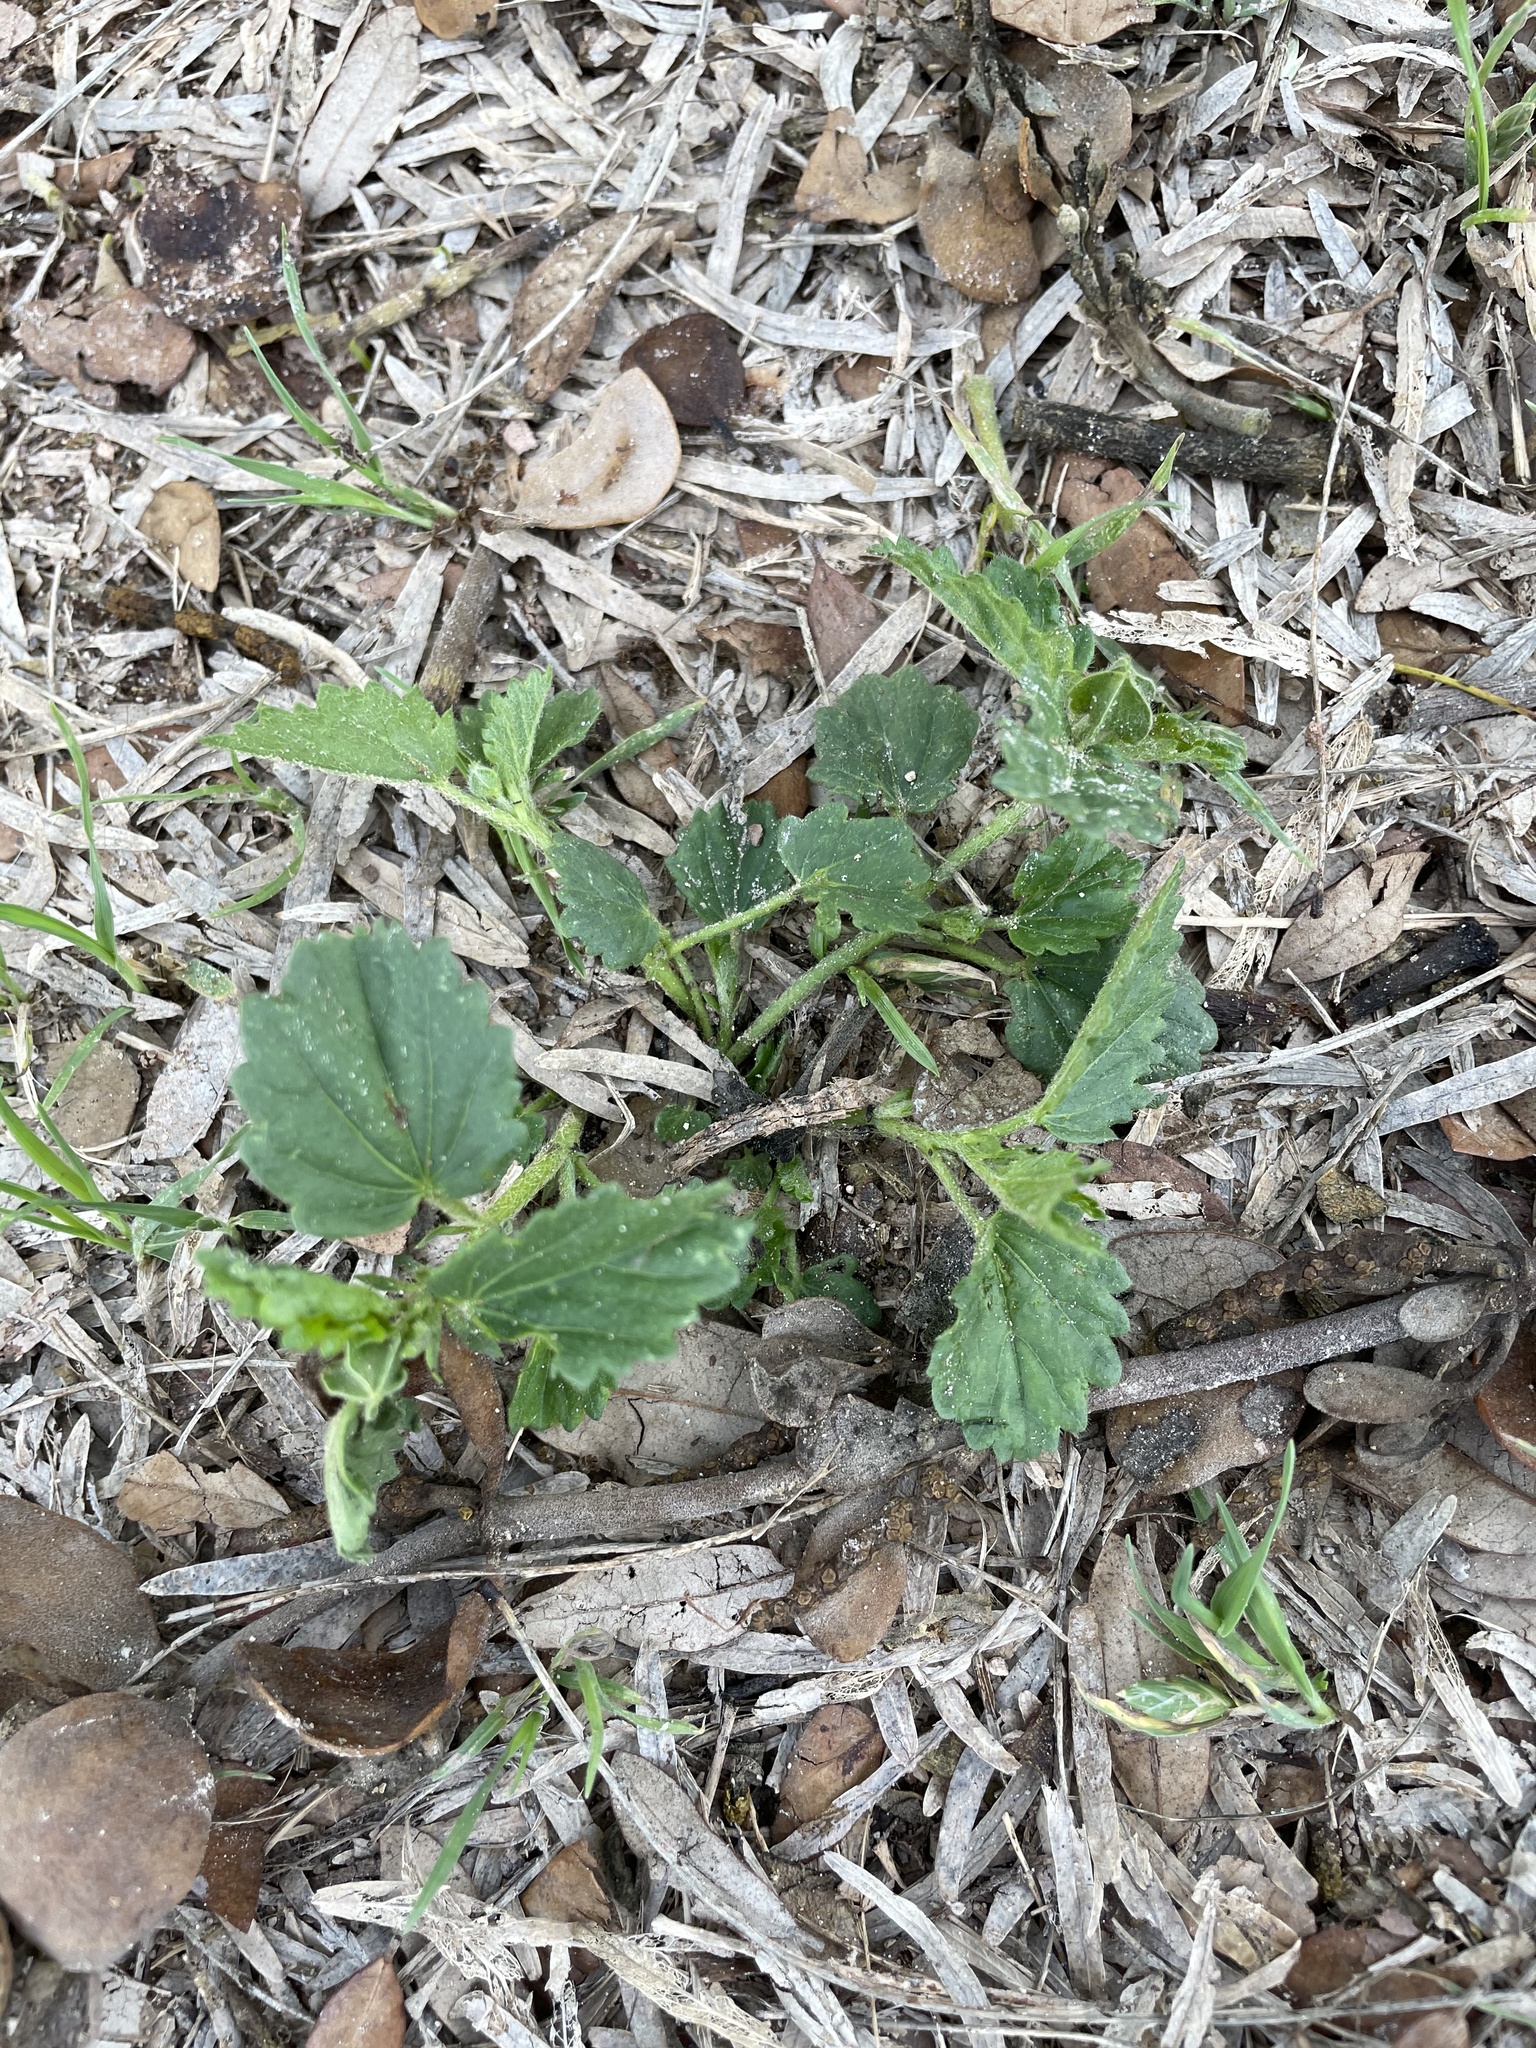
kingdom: Plantae
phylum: Tracheophyta
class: Magnoliopsida
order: Malvales
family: Malvaceae
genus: Rhynchosida
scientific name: Rhynchosida physocalyx
